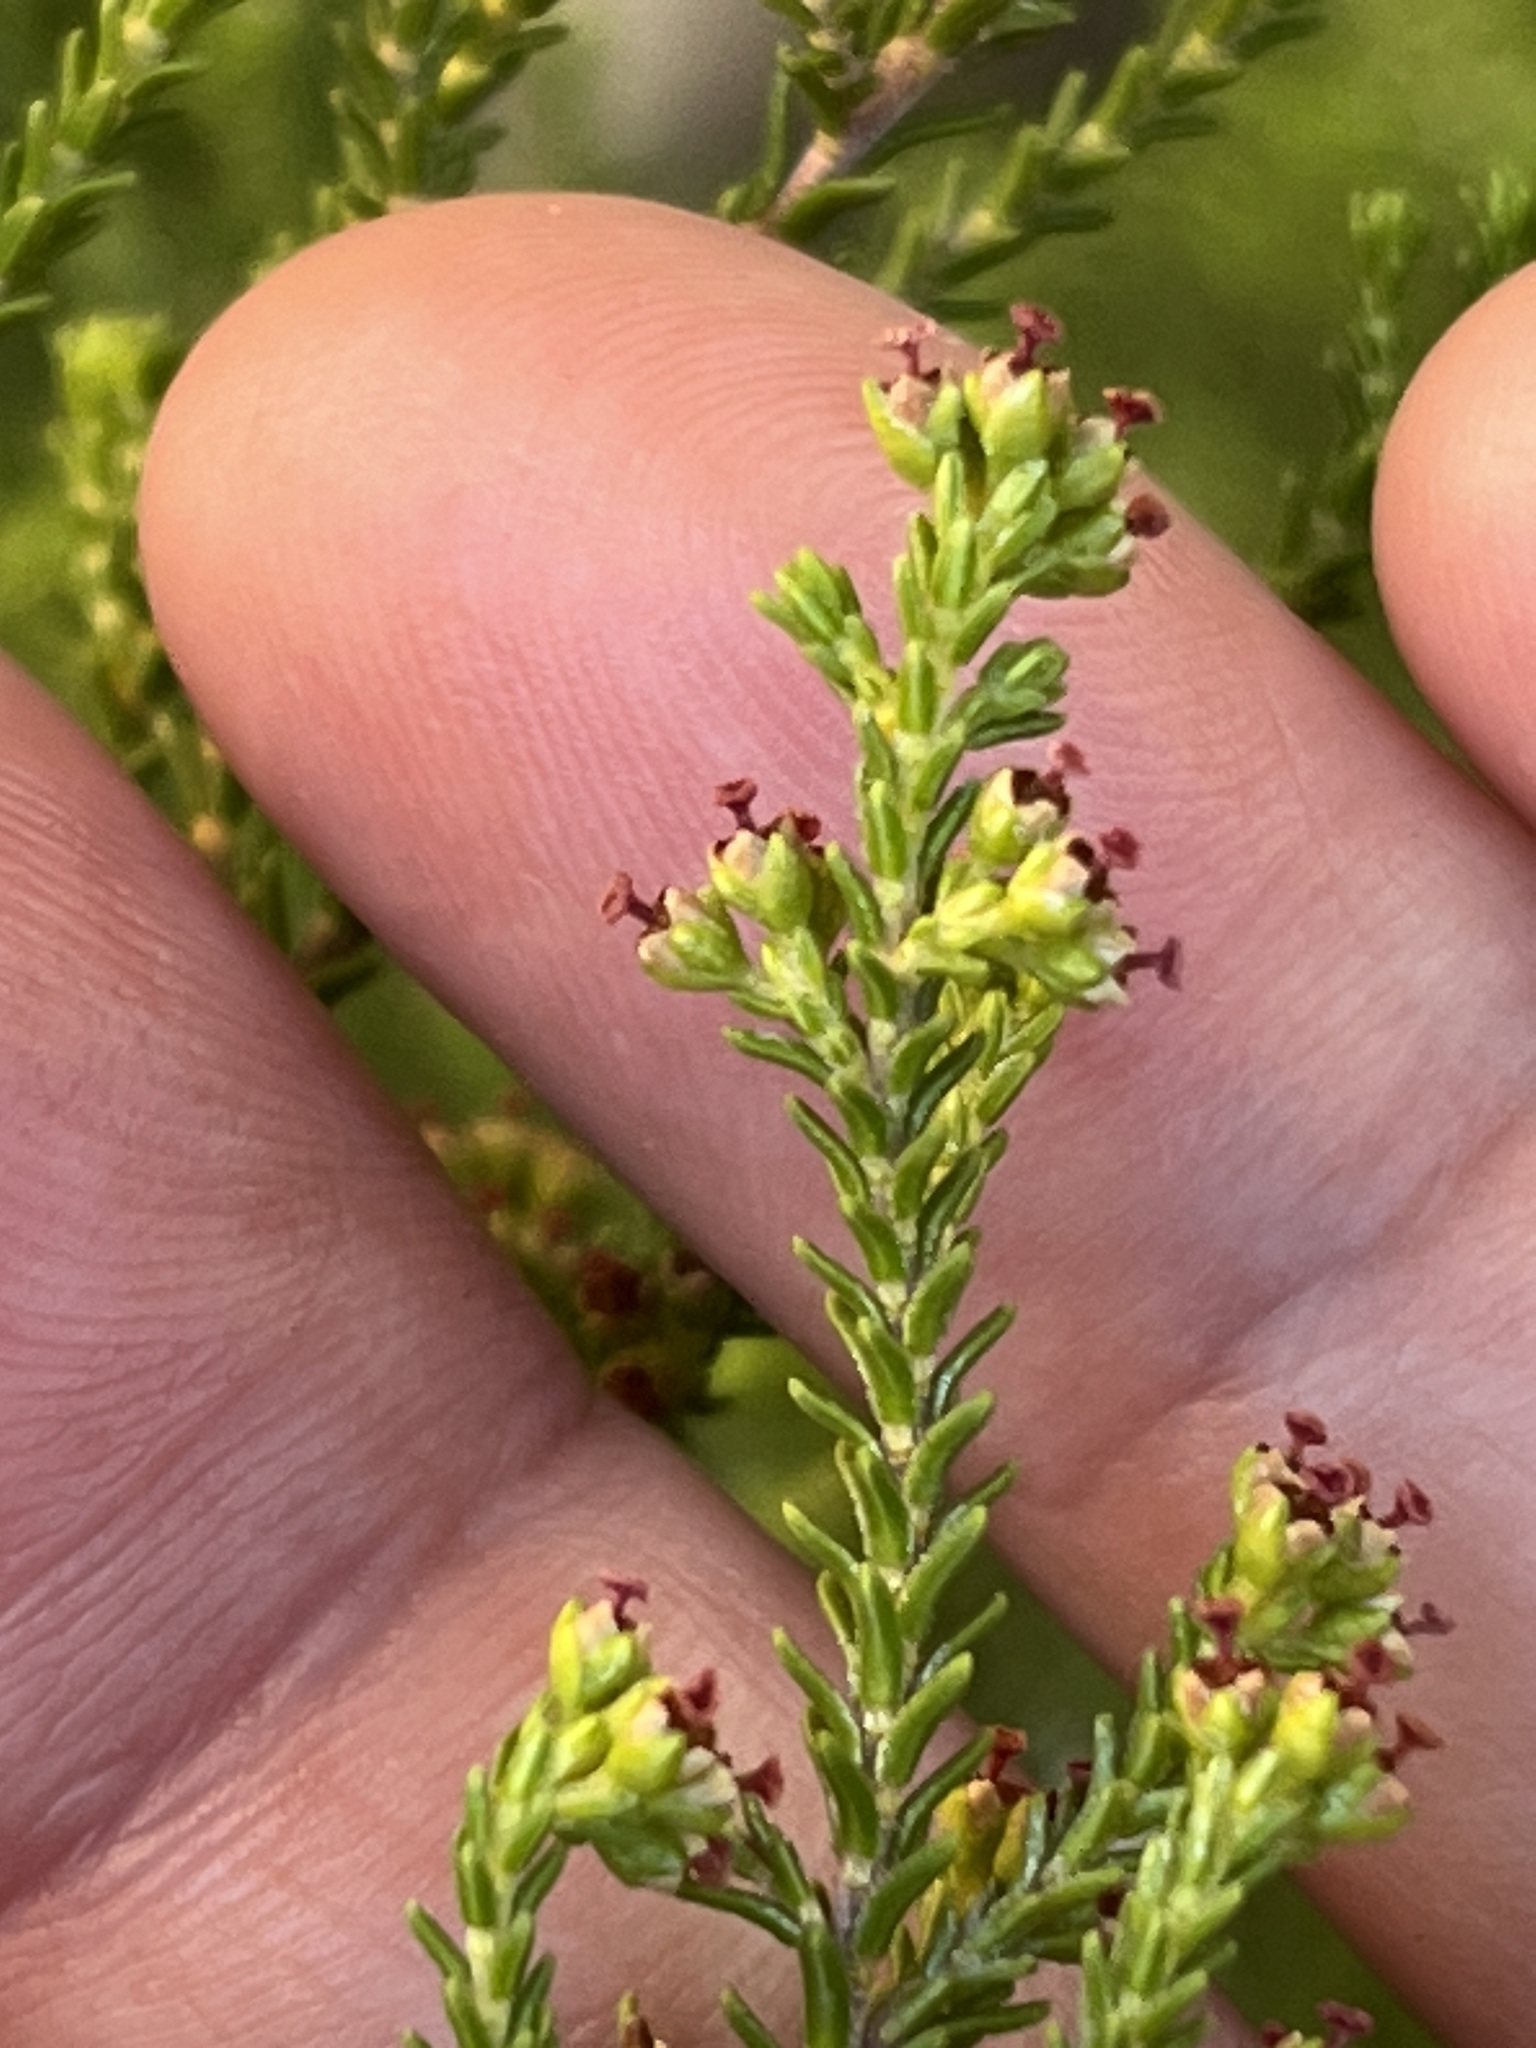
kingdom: Plantae
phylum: Tracheophyta
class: Magnoliopsida
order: Ericales
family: Ericaceae
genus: Erica
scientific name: Erica tristis
